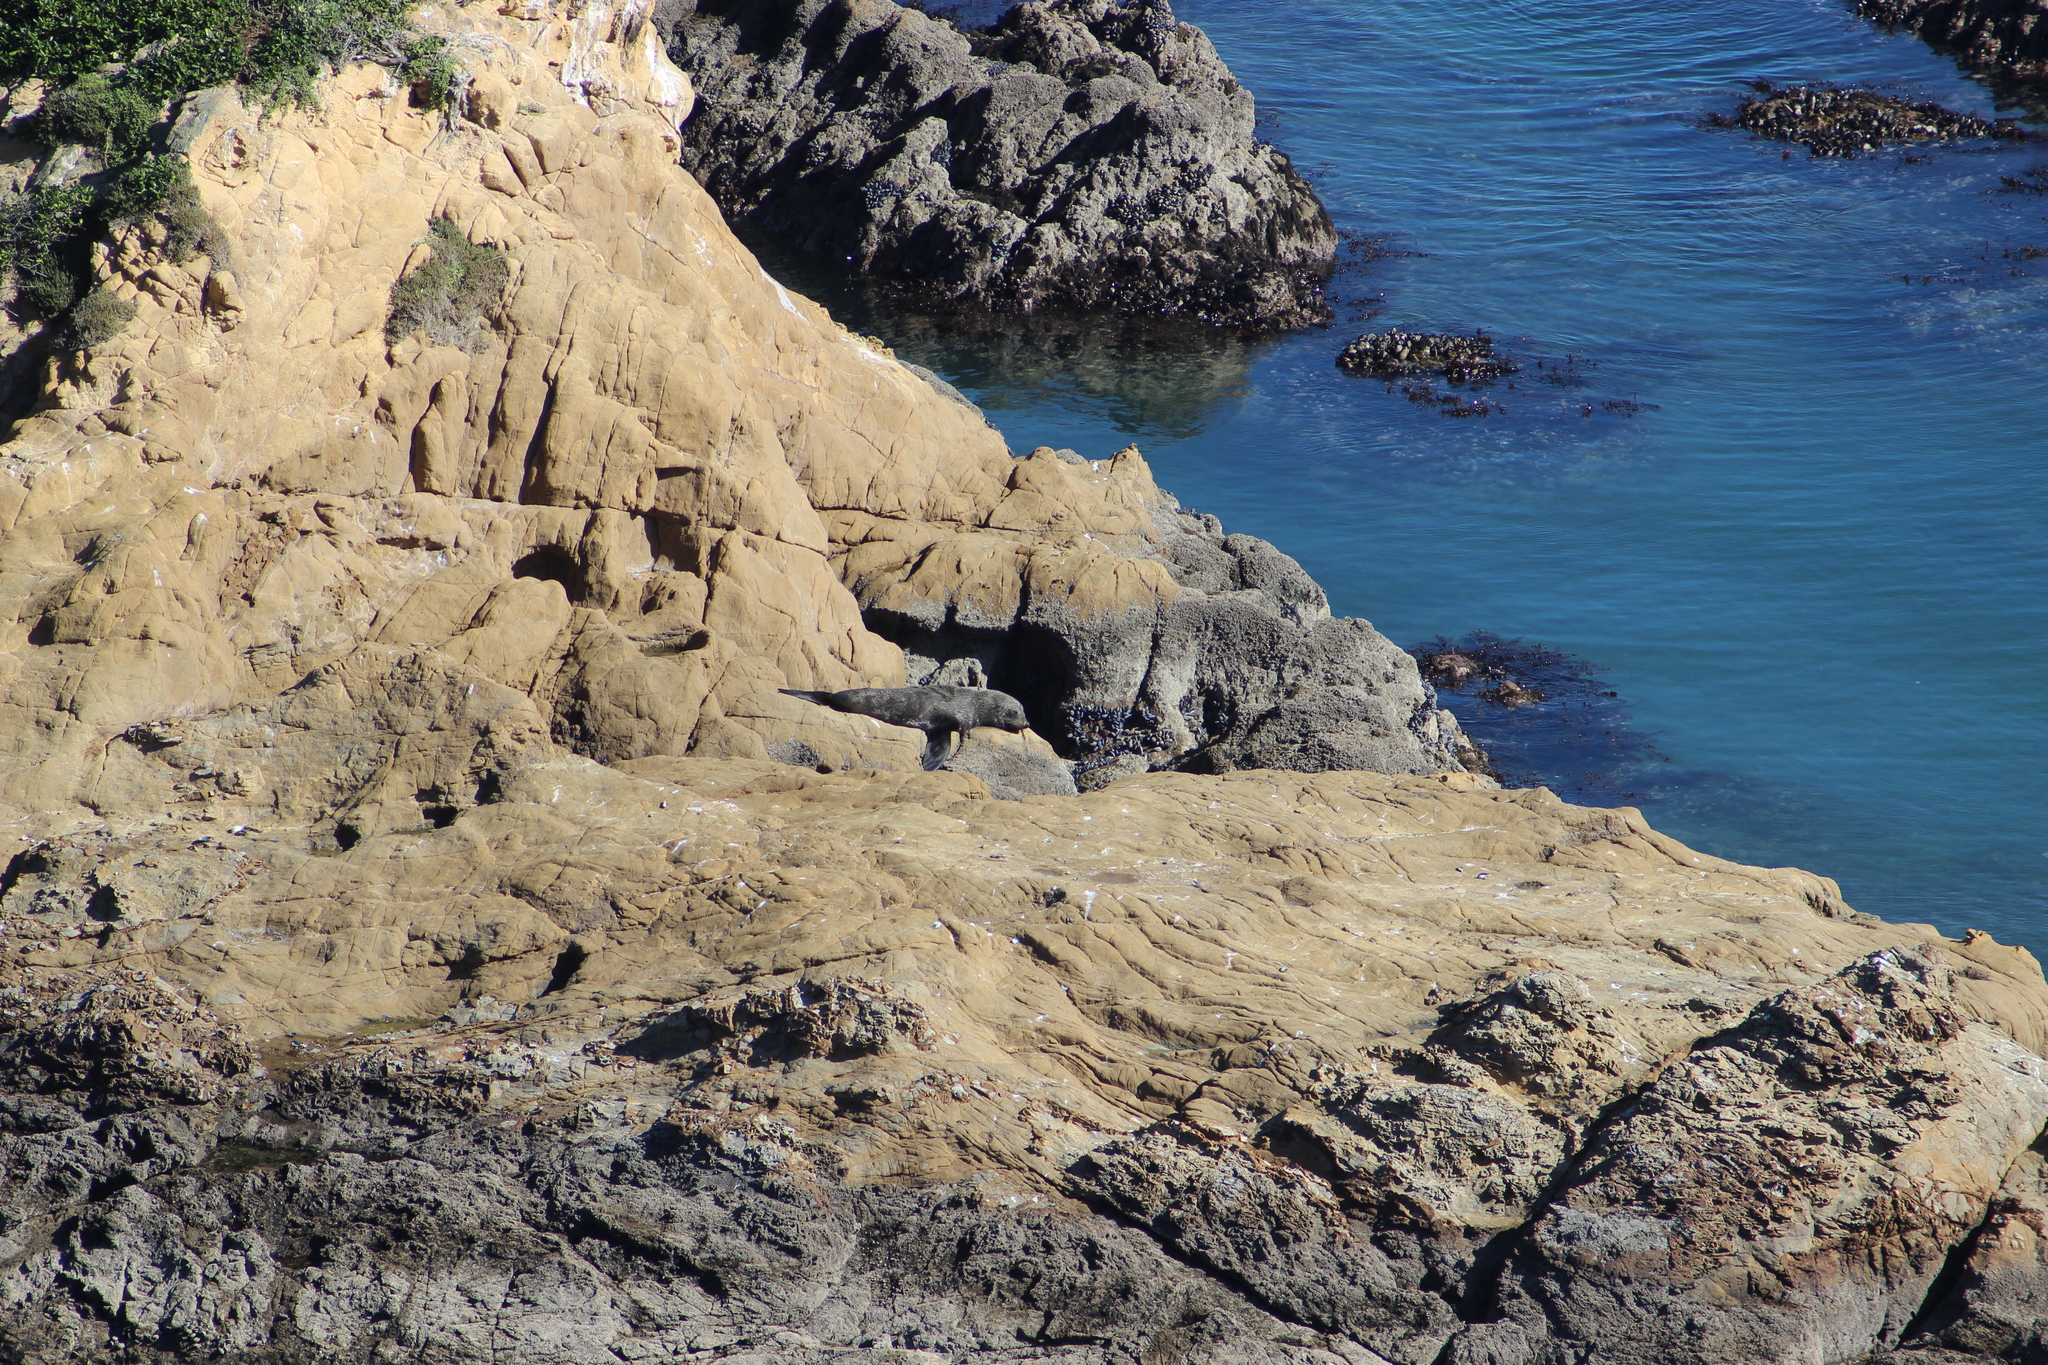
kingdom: Animalia
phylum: Chordata
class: Mammalia
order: Carnivora
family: Otariidae
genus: Arctocephalus
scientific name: Arctocephalus forsteri
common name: New zealand fur seal
